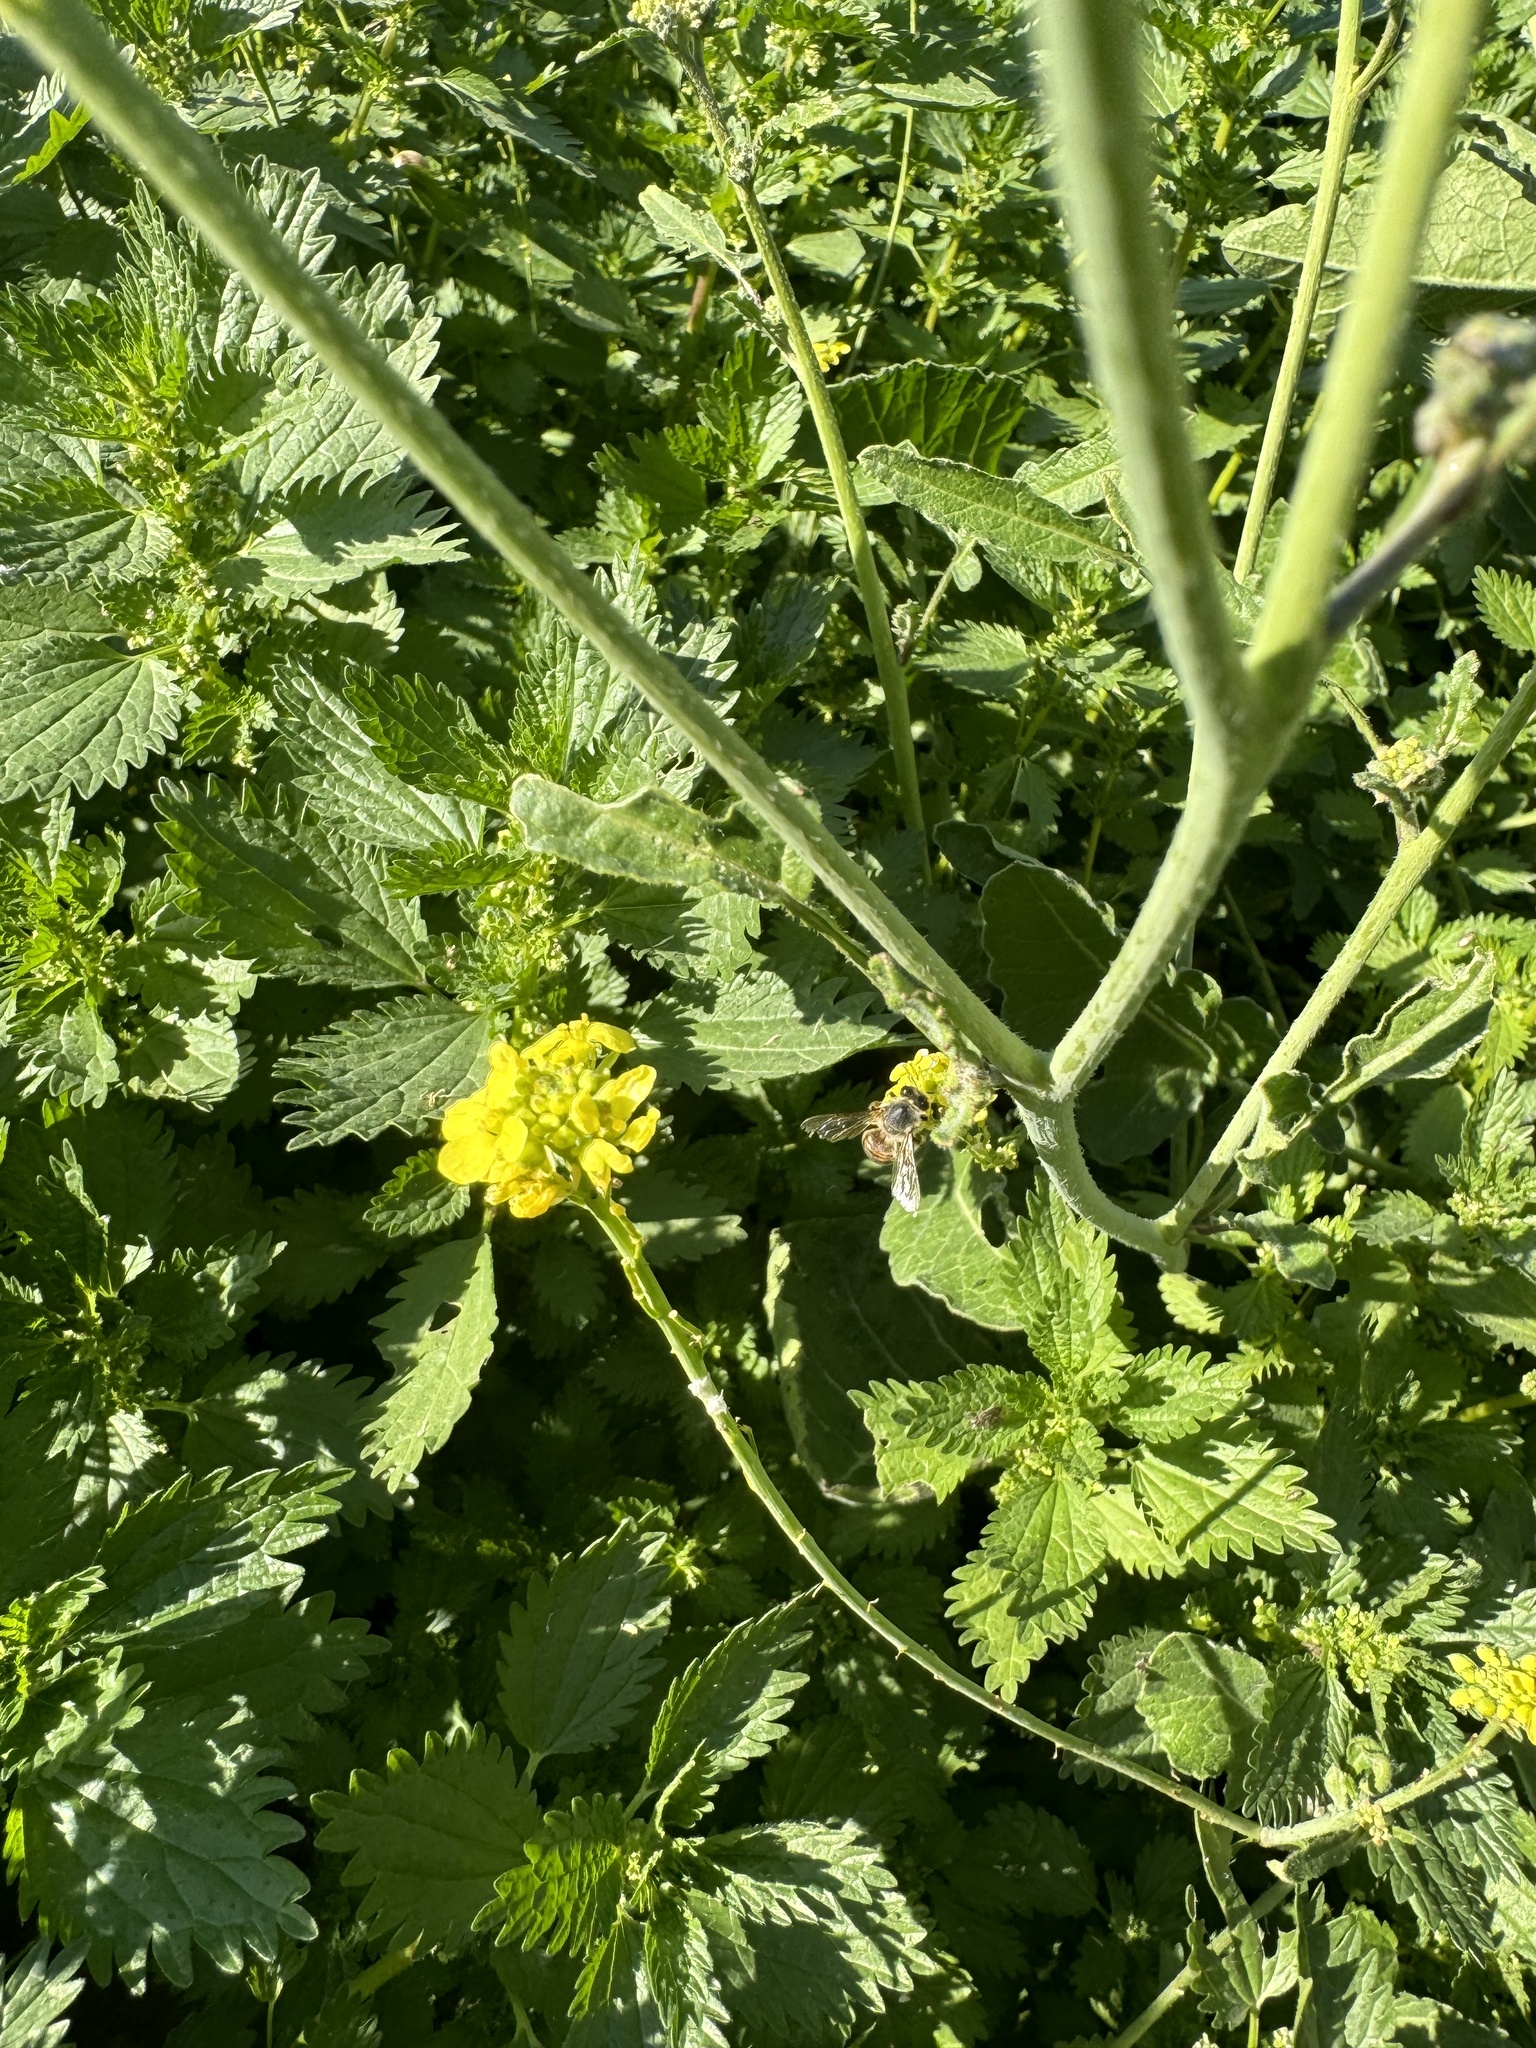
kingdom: Animalia
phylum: Arthropoda
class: Insecta
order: Hymenoptera
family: Apidae
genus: Apis
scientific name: Apis mellifera
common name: Honey bee
